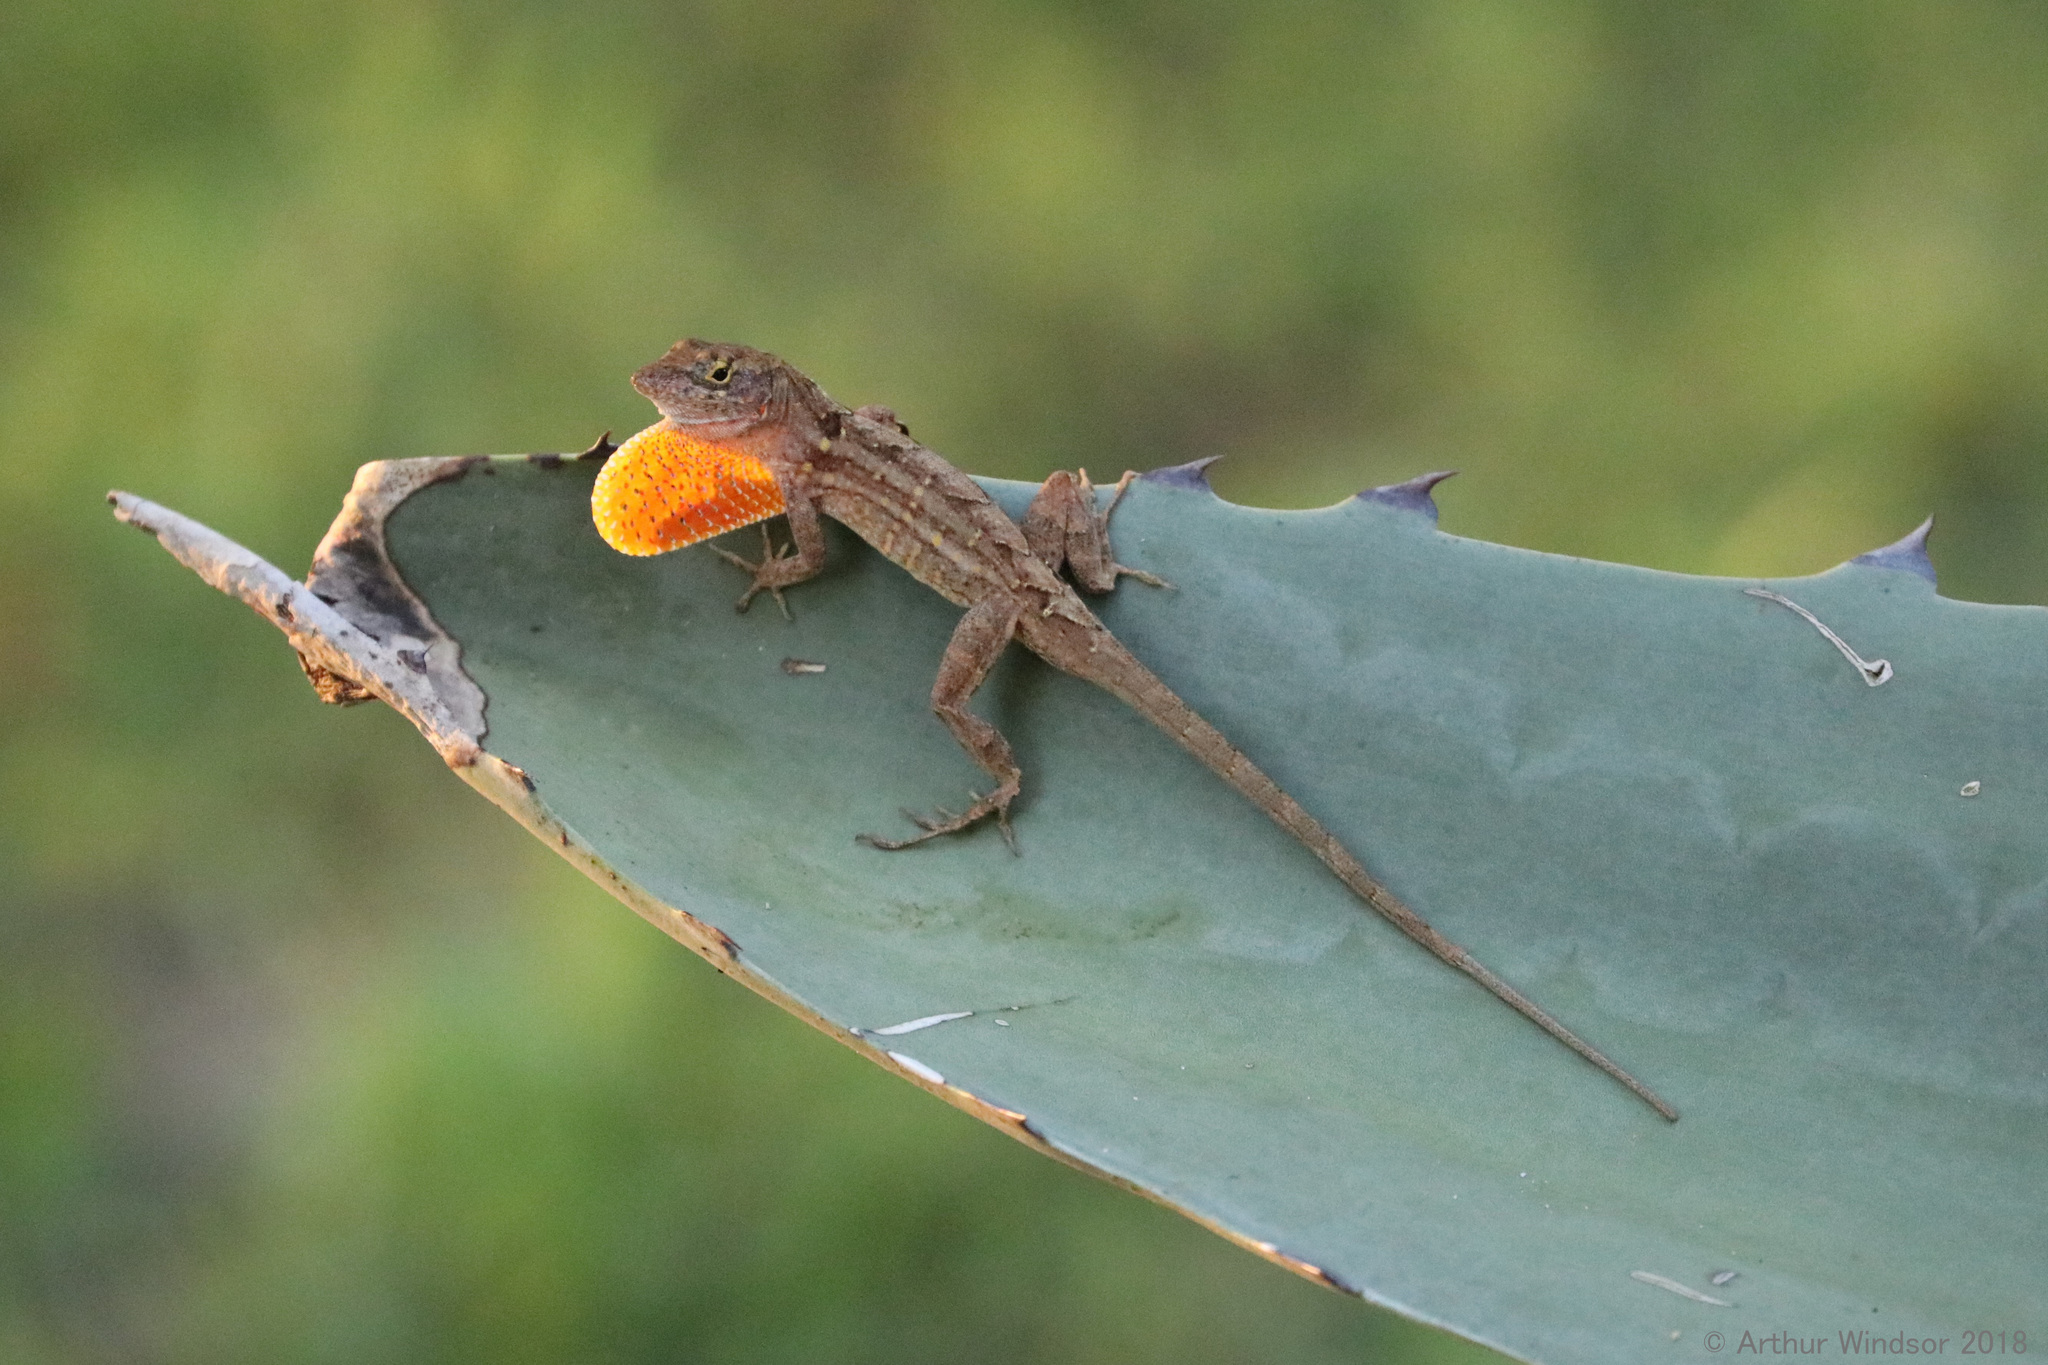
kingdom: Animalia
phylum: Chordata
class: Squamata
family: Dactyloidae
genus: Anolis
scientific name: Anolis sagrei
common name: Brown anole
